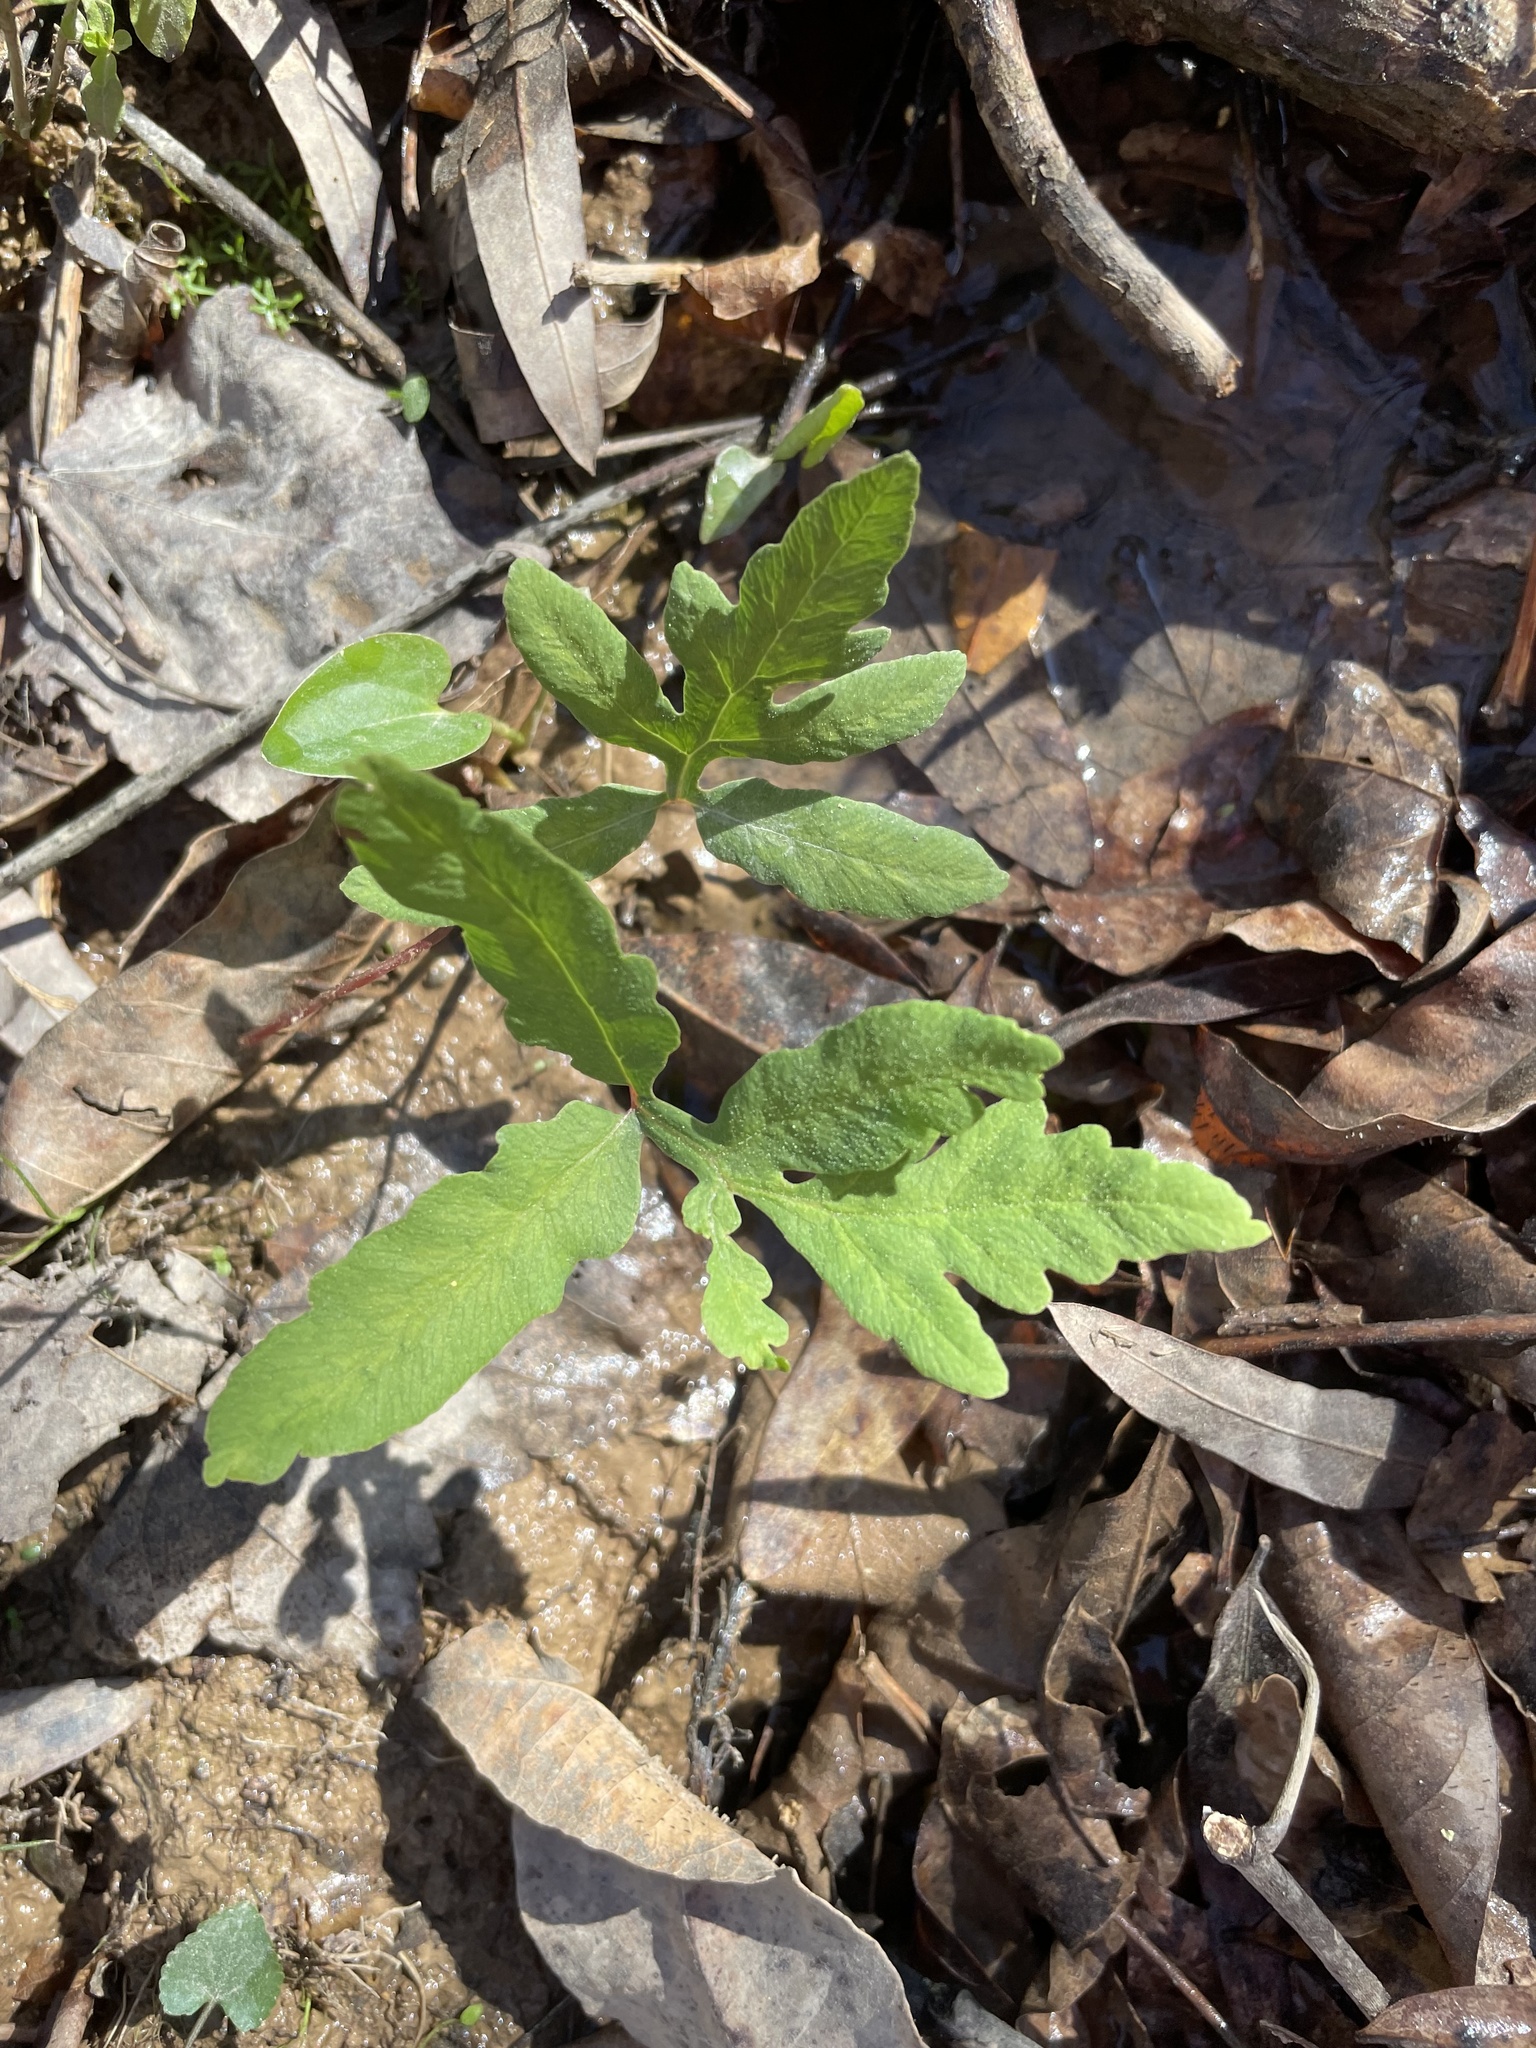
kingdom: Plantae
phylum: Tracheophyta
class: Polypodiopsida
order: Polypodiales
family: Onocleaceae
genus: Onoclea
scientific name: Onoclea sensibilis
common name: Sensitive fern
